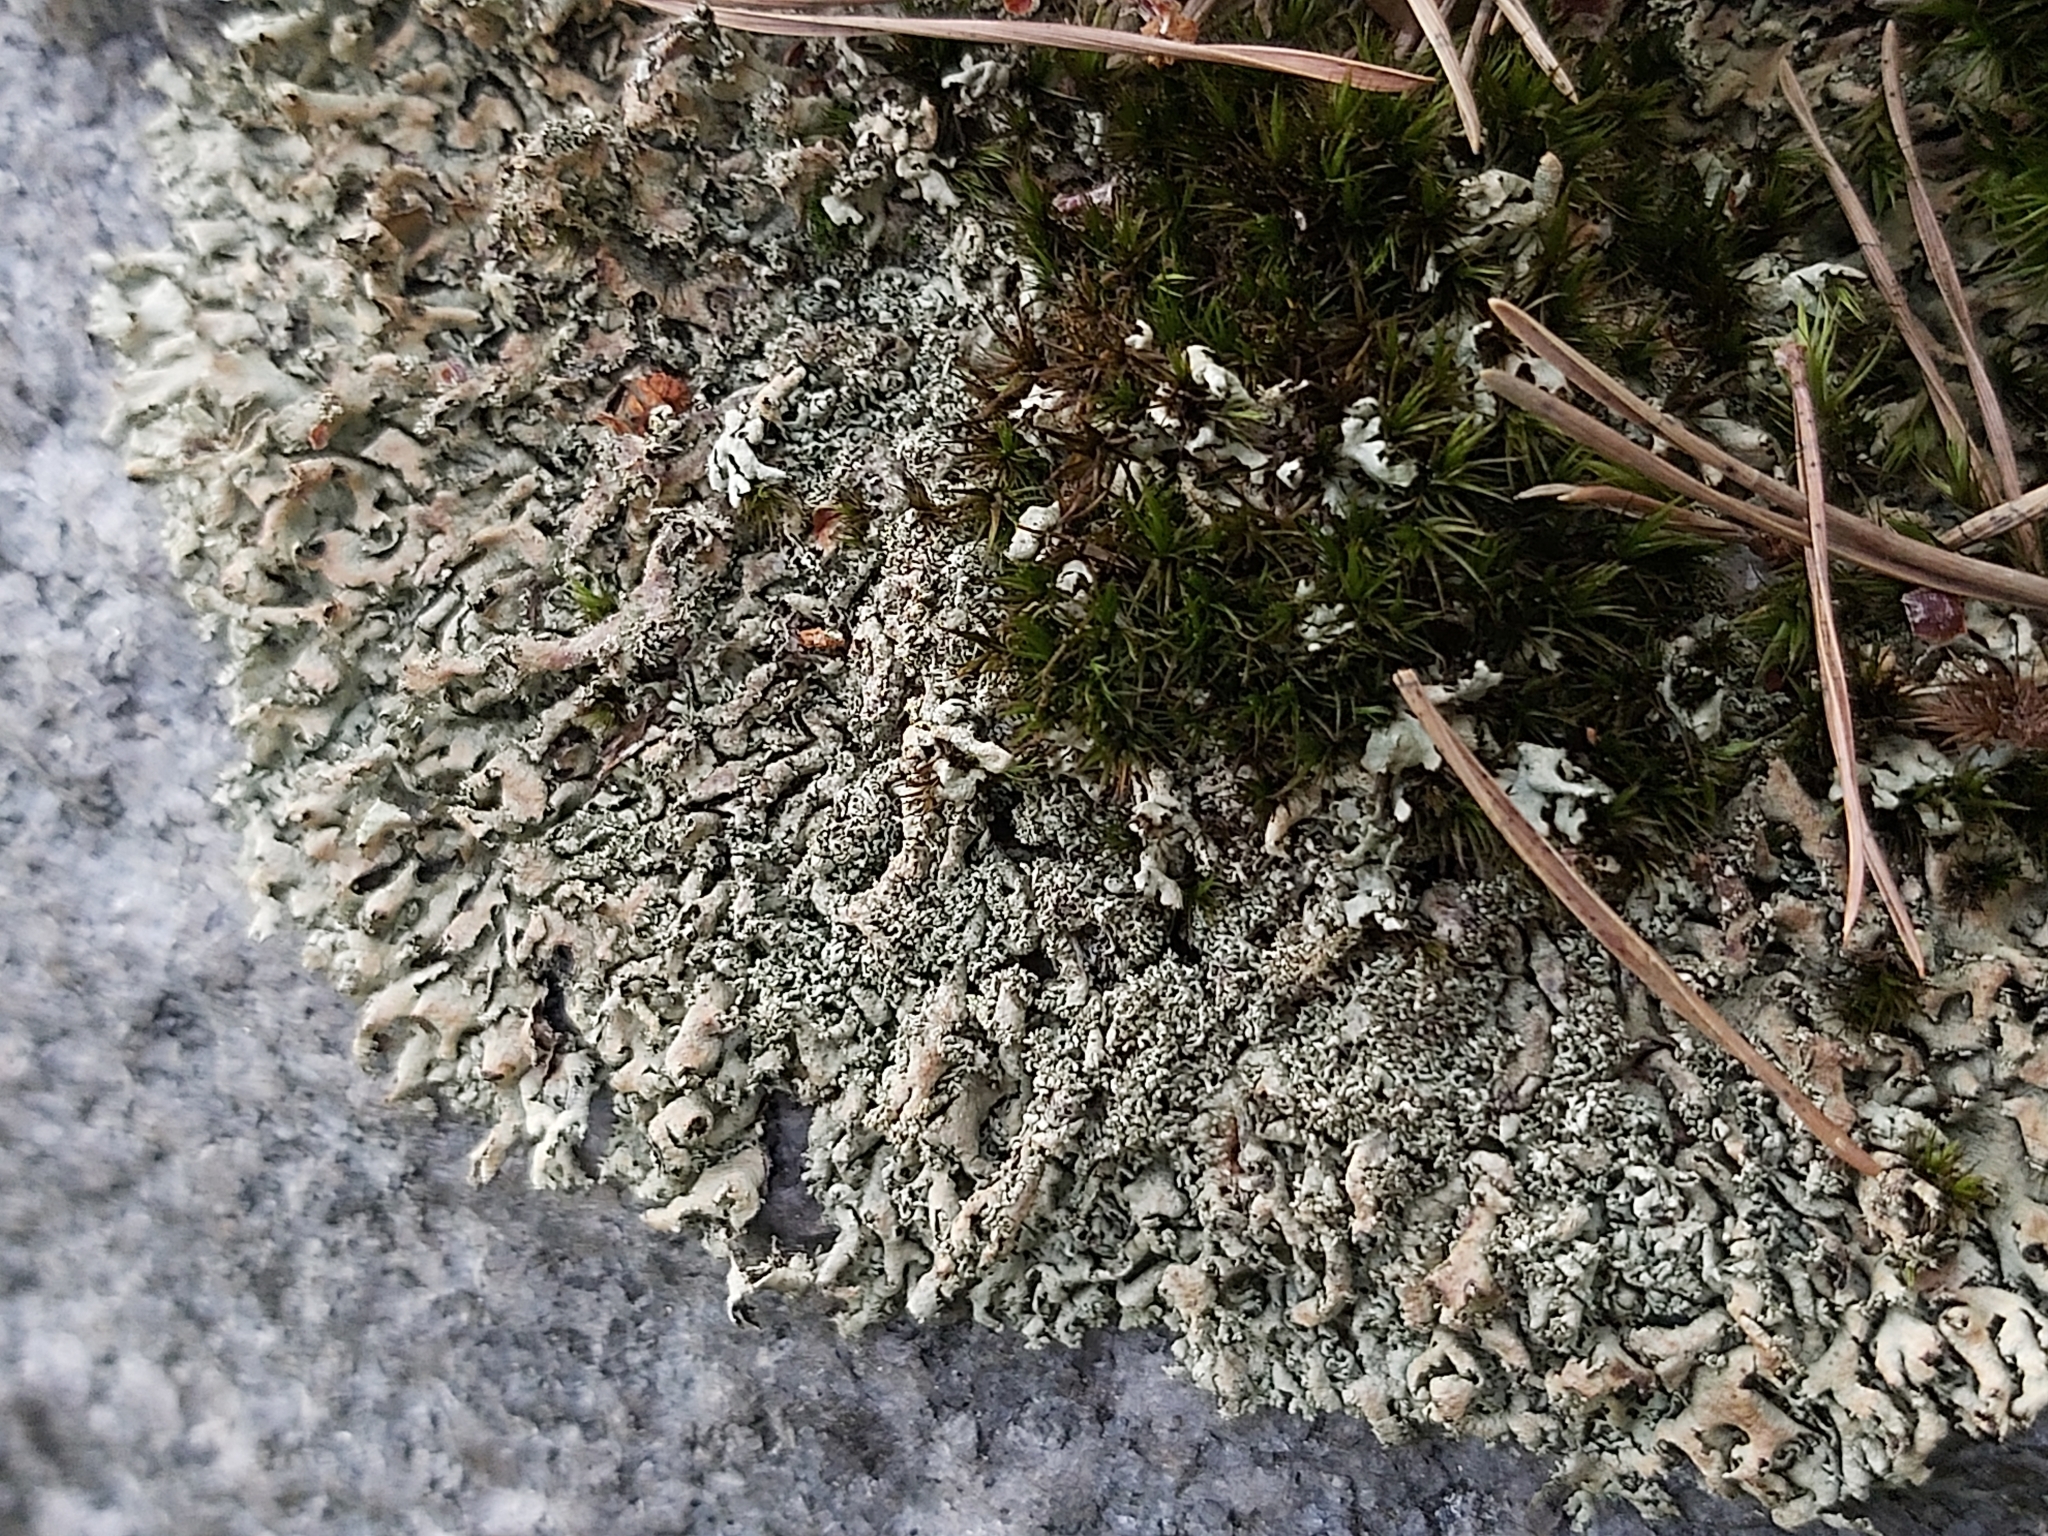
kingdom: Fungi
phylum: Ascomycota
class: Lecanoromycetes
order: Lecanorales
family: Parmeliaceae
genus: Xanthoparmelia
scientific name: Xanthoparmelia conspersa
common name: Peppered rock shield
